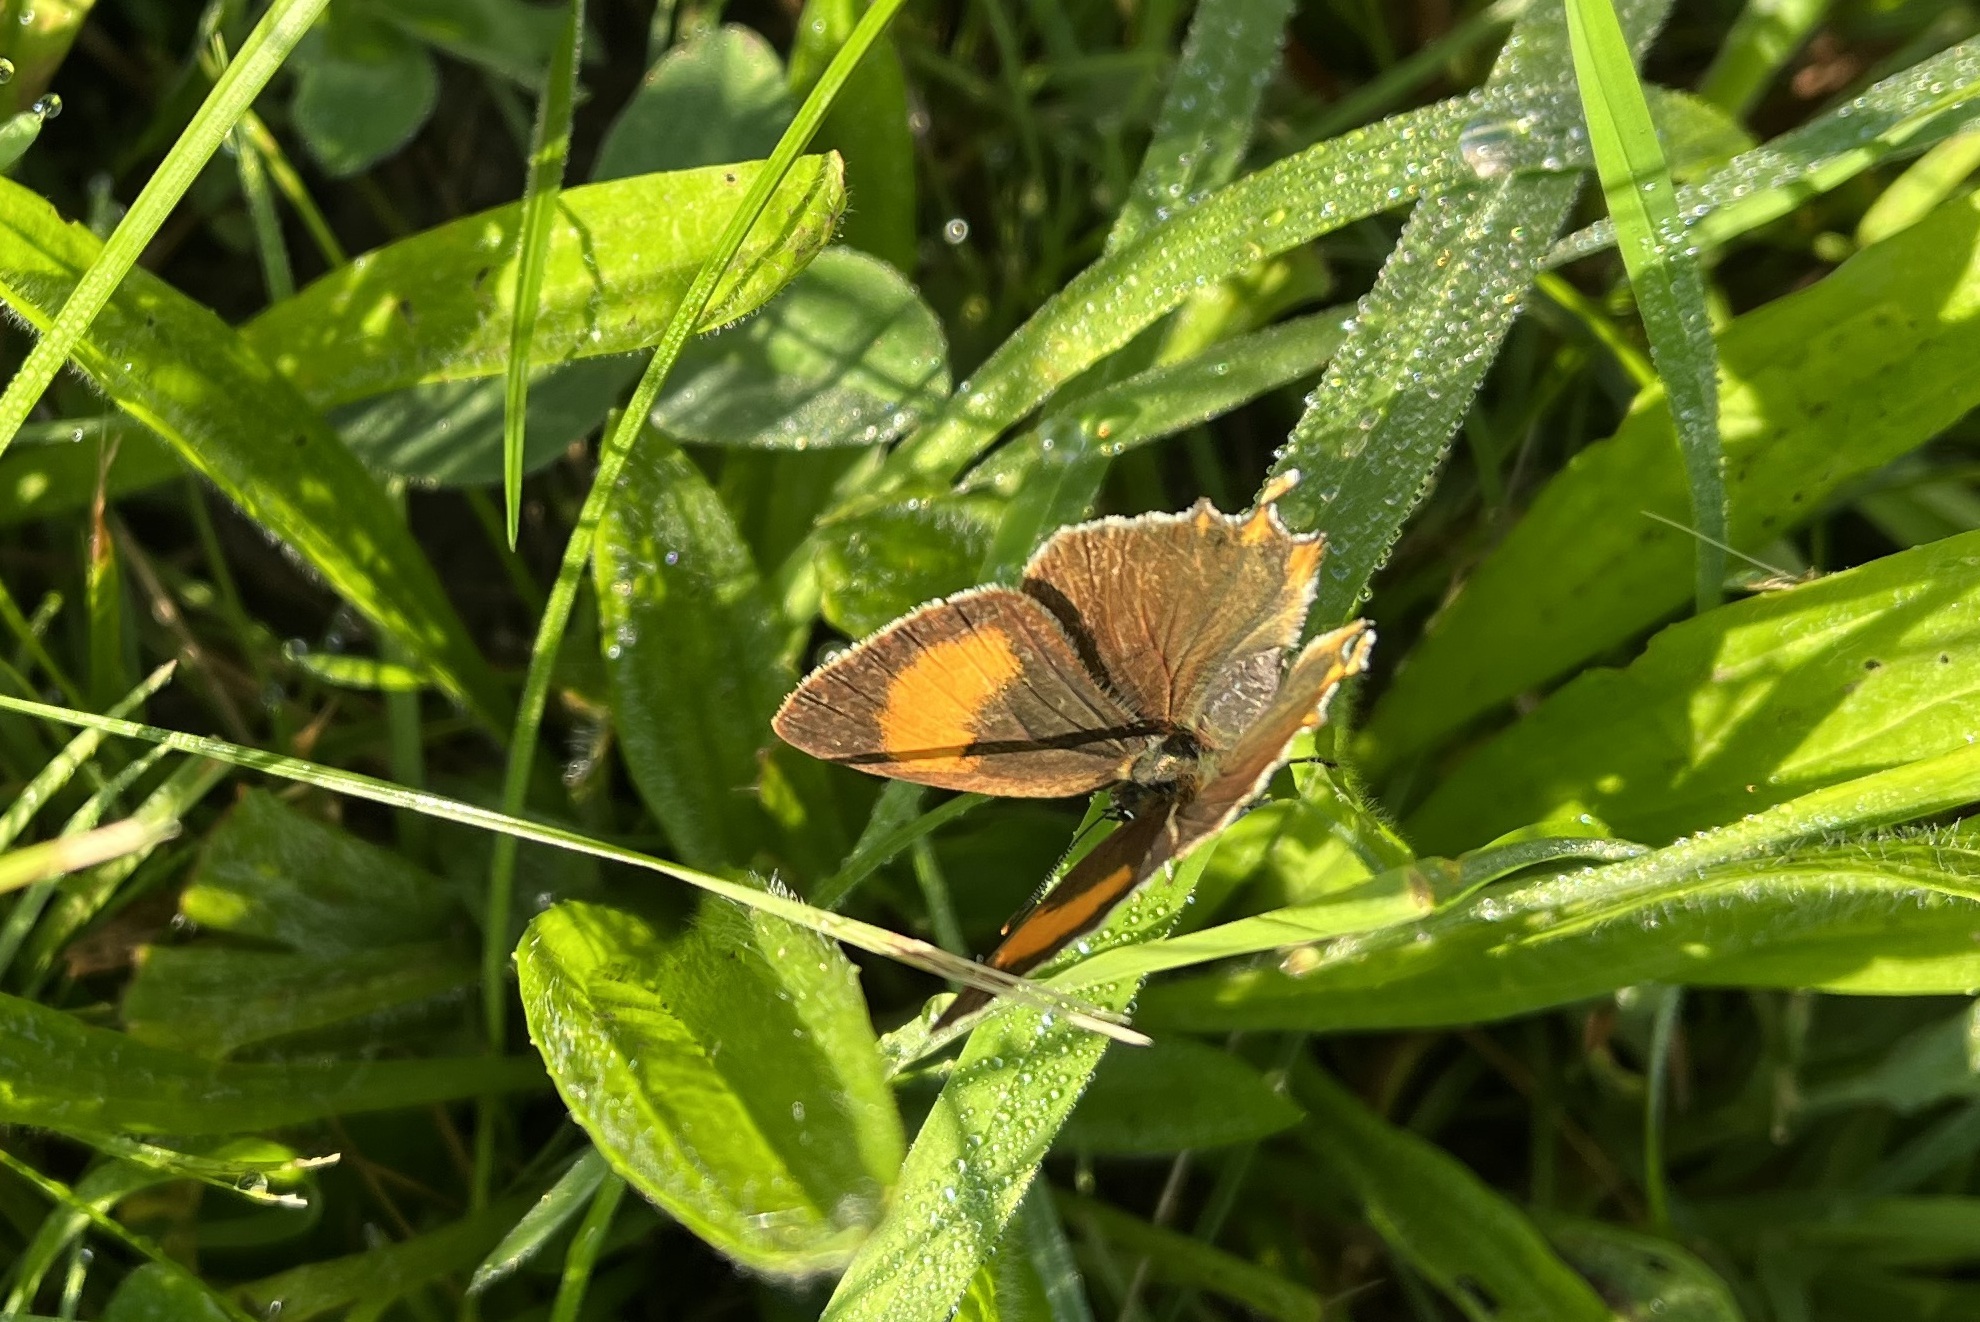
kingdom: Animalia
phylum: Arthropoda
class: Insecta
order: Lepidoptera
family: Lycaenidae
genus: Thecla
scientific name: Thecla betulae
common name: Brown hairstreak
